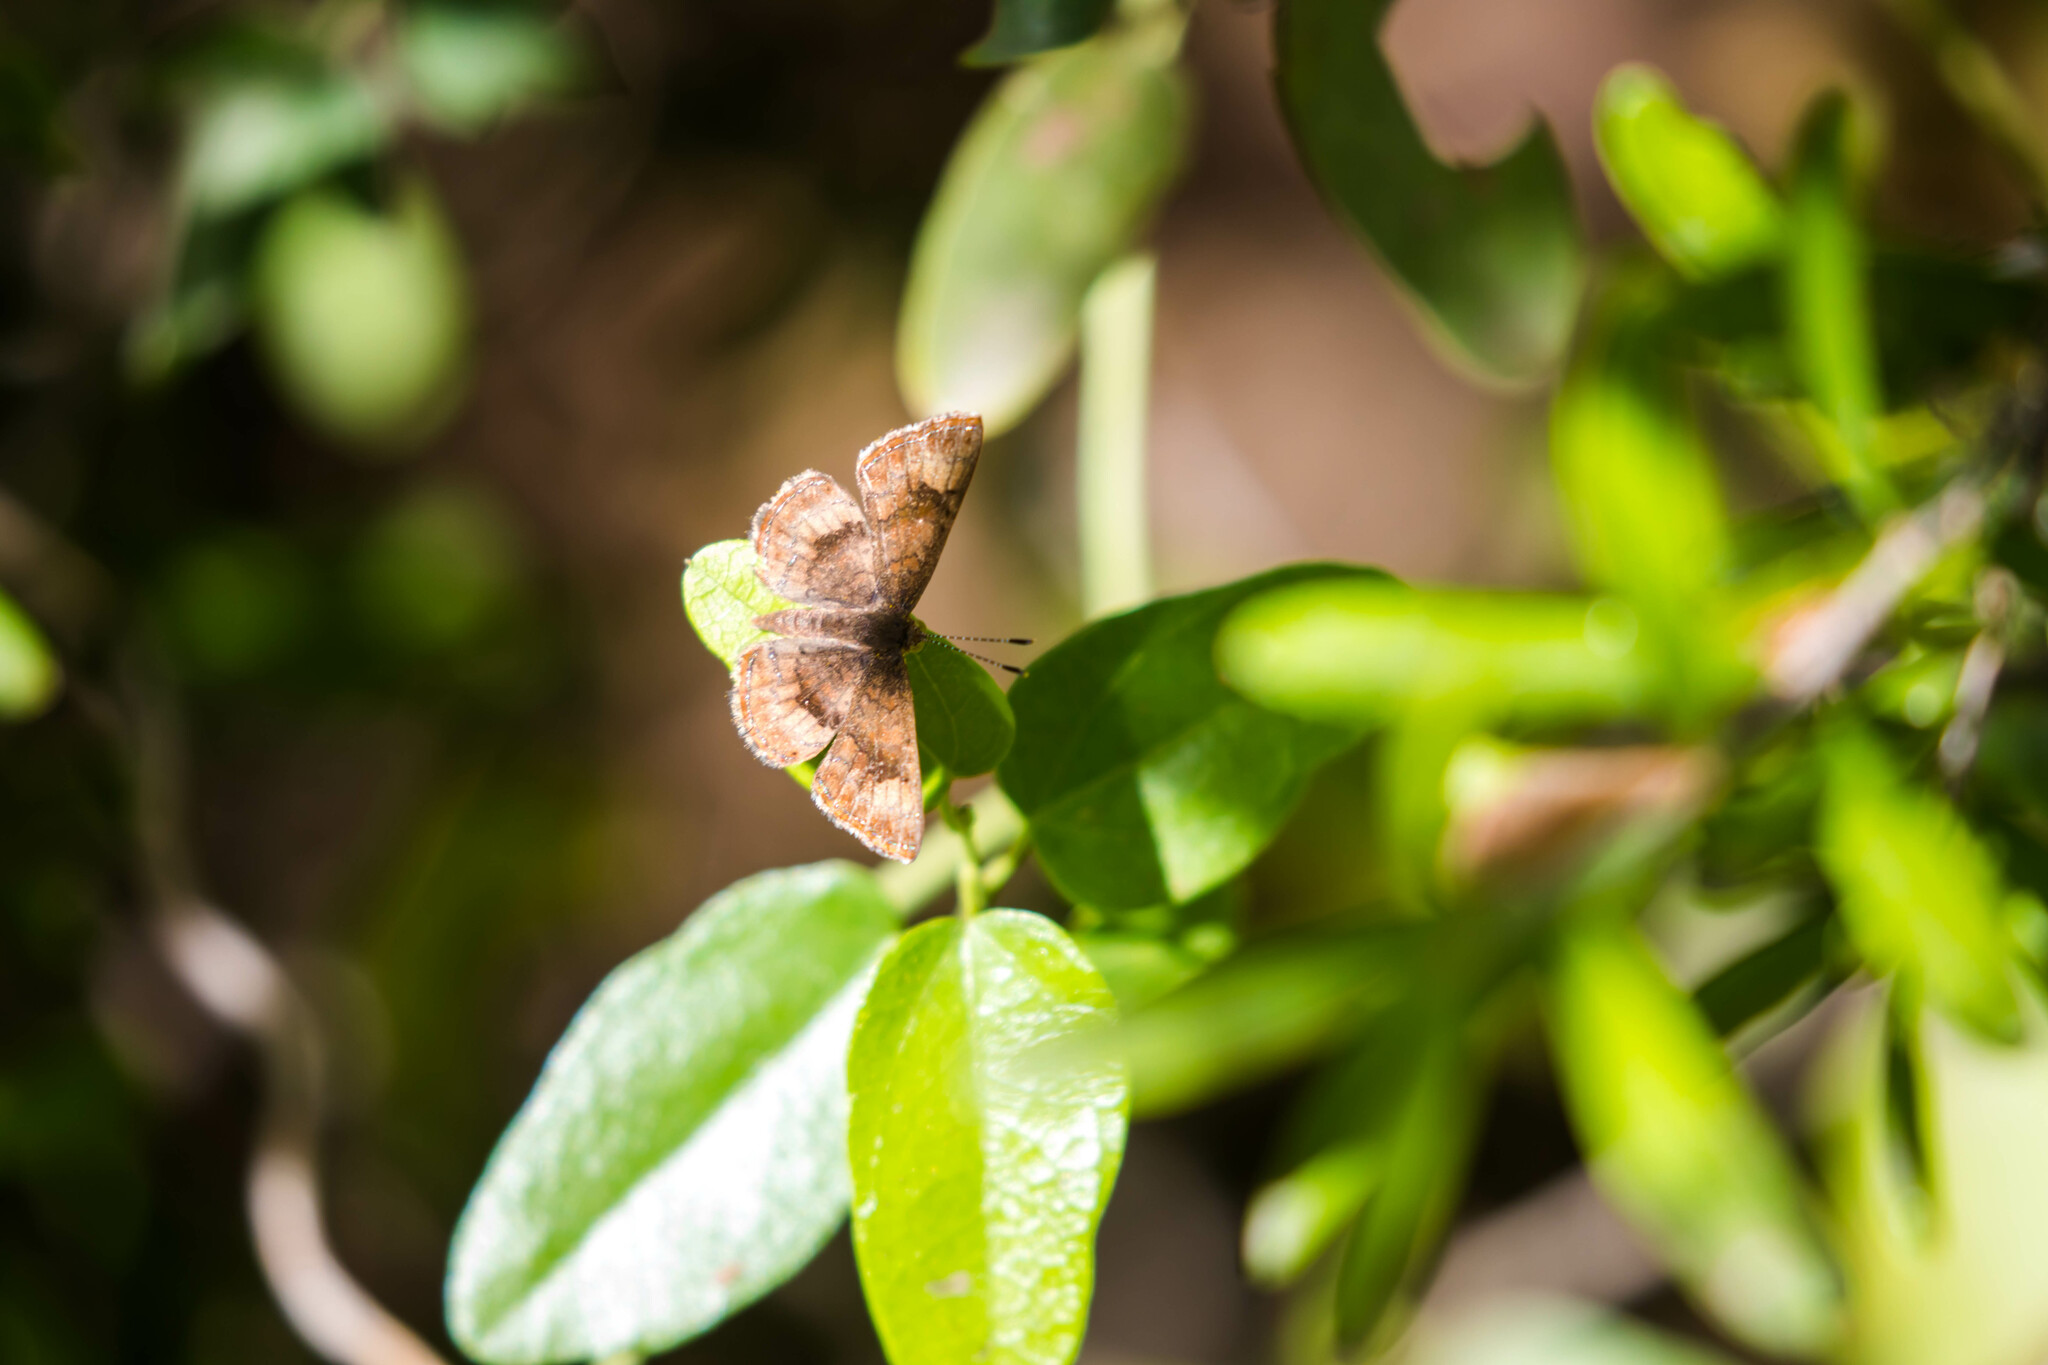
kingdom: Animalia
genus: Calephelis
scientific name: Calephelis nemesis
